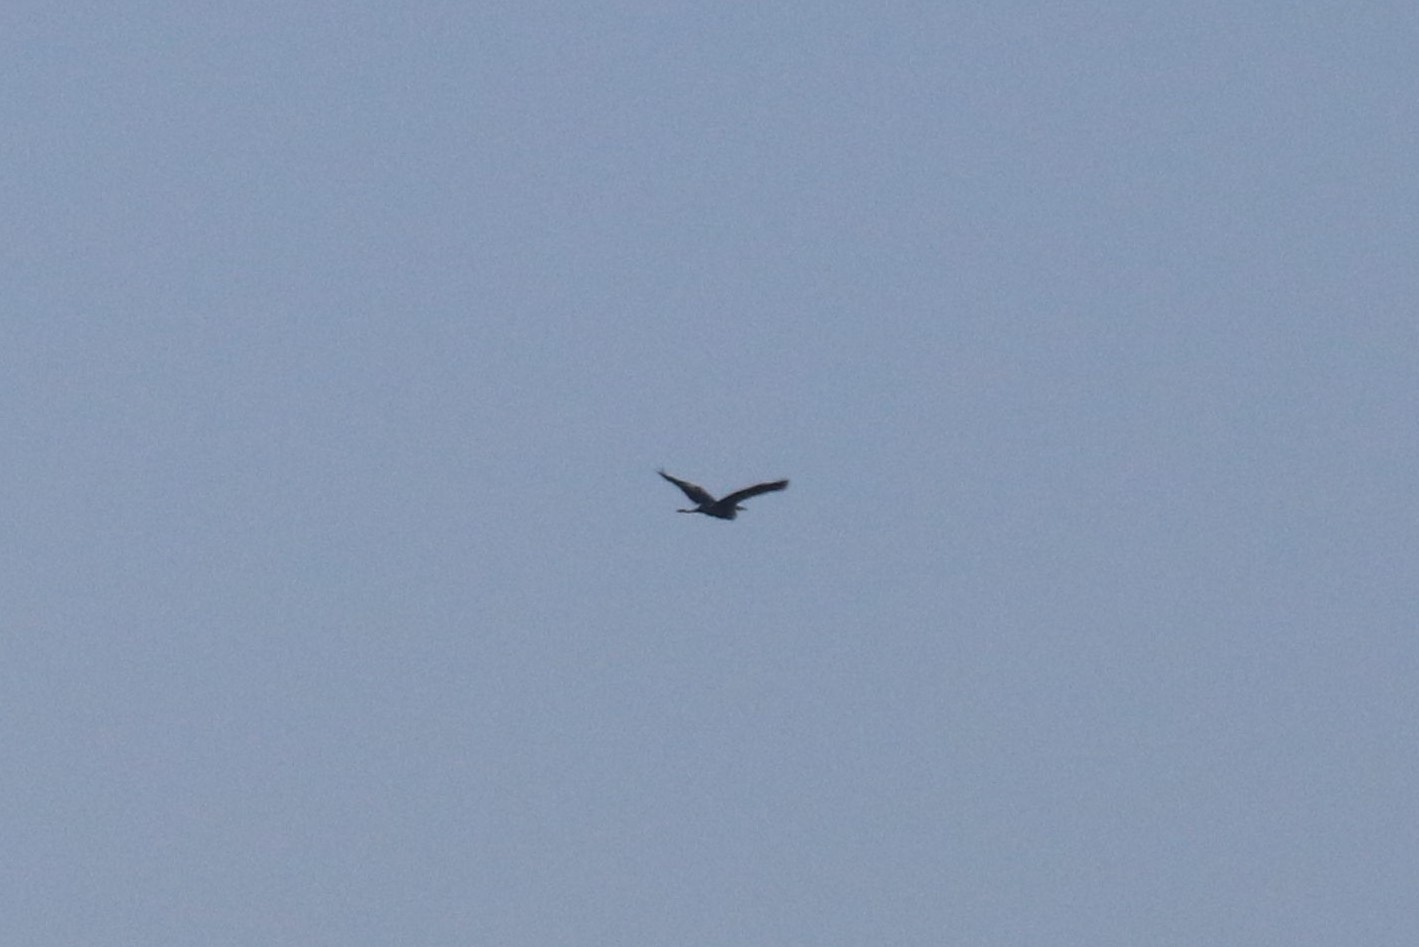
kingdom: Animalia
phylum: Chordata
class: Aves
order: Pelecaniformes
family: Ardeidae
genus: Ardea
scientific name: Ardea cinerea
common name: Grey heron
